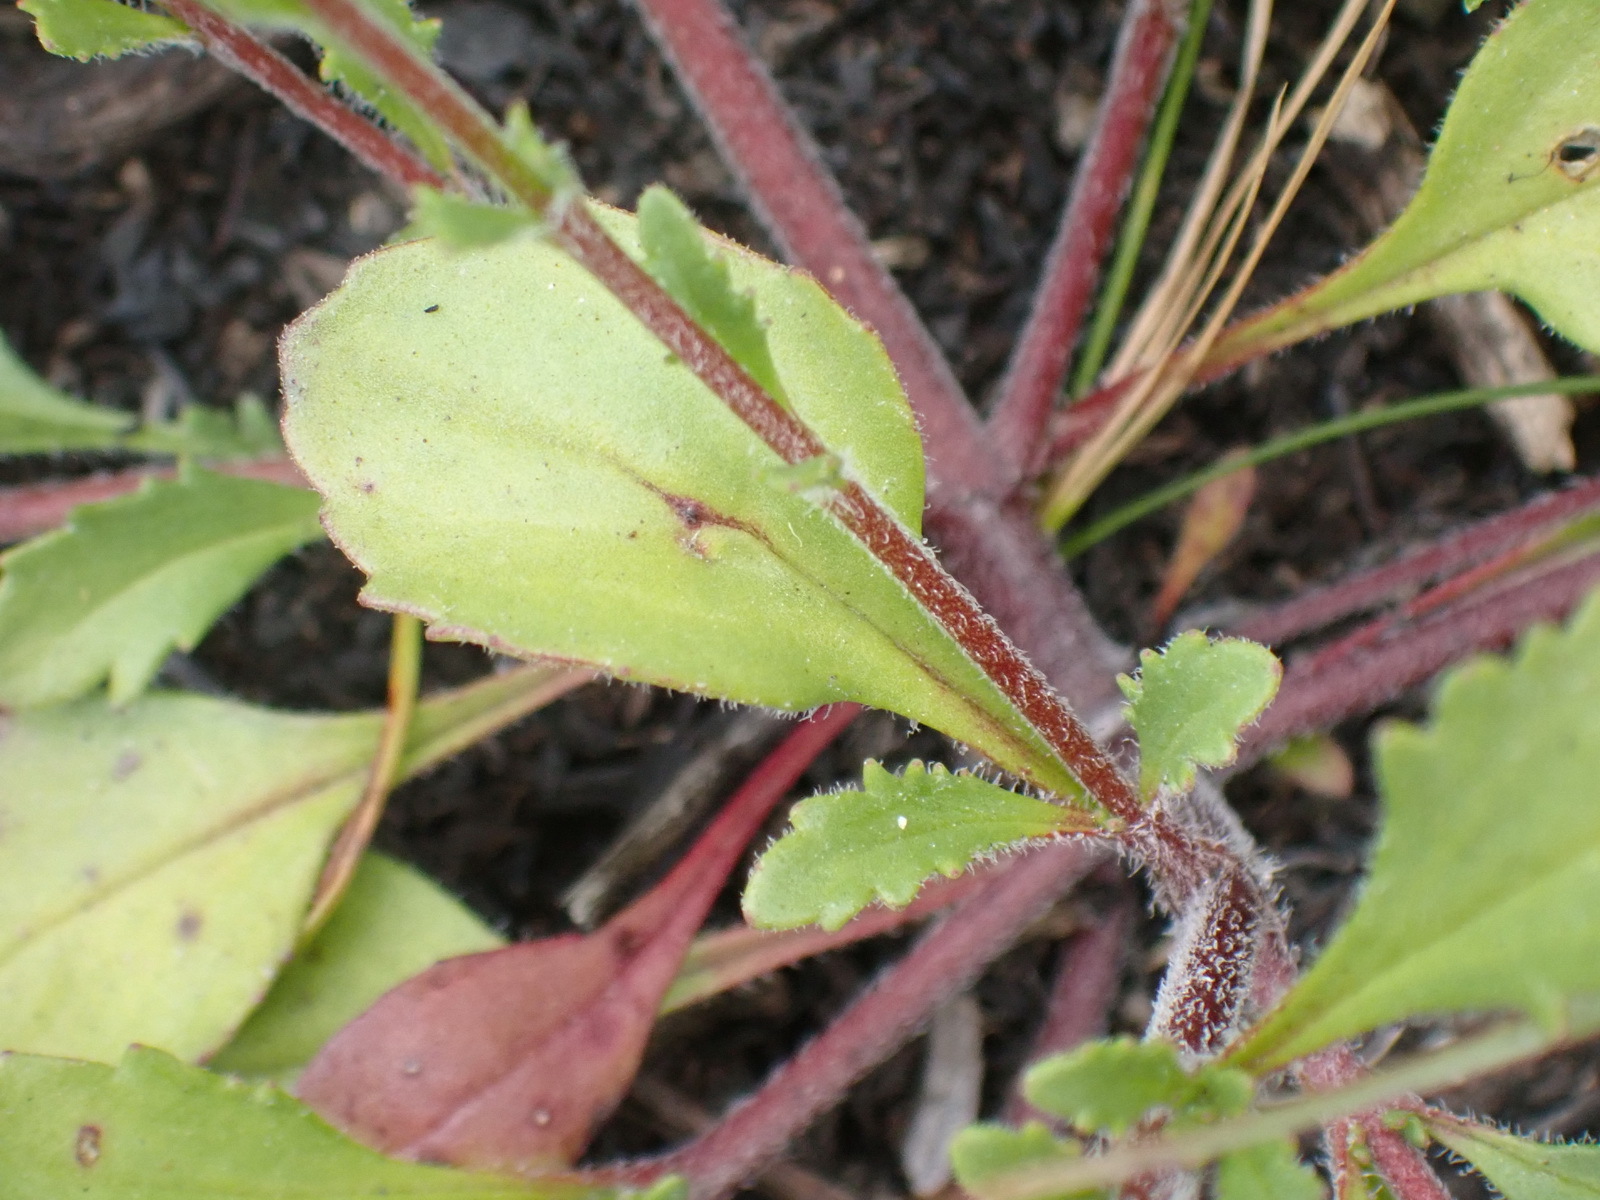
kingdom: Plantae
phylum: Tracheophyta
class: Magnoliopsida
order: Lamiales
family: Scrophulariaceae
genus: Pseudoselago
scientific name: Pseudoselago bella
